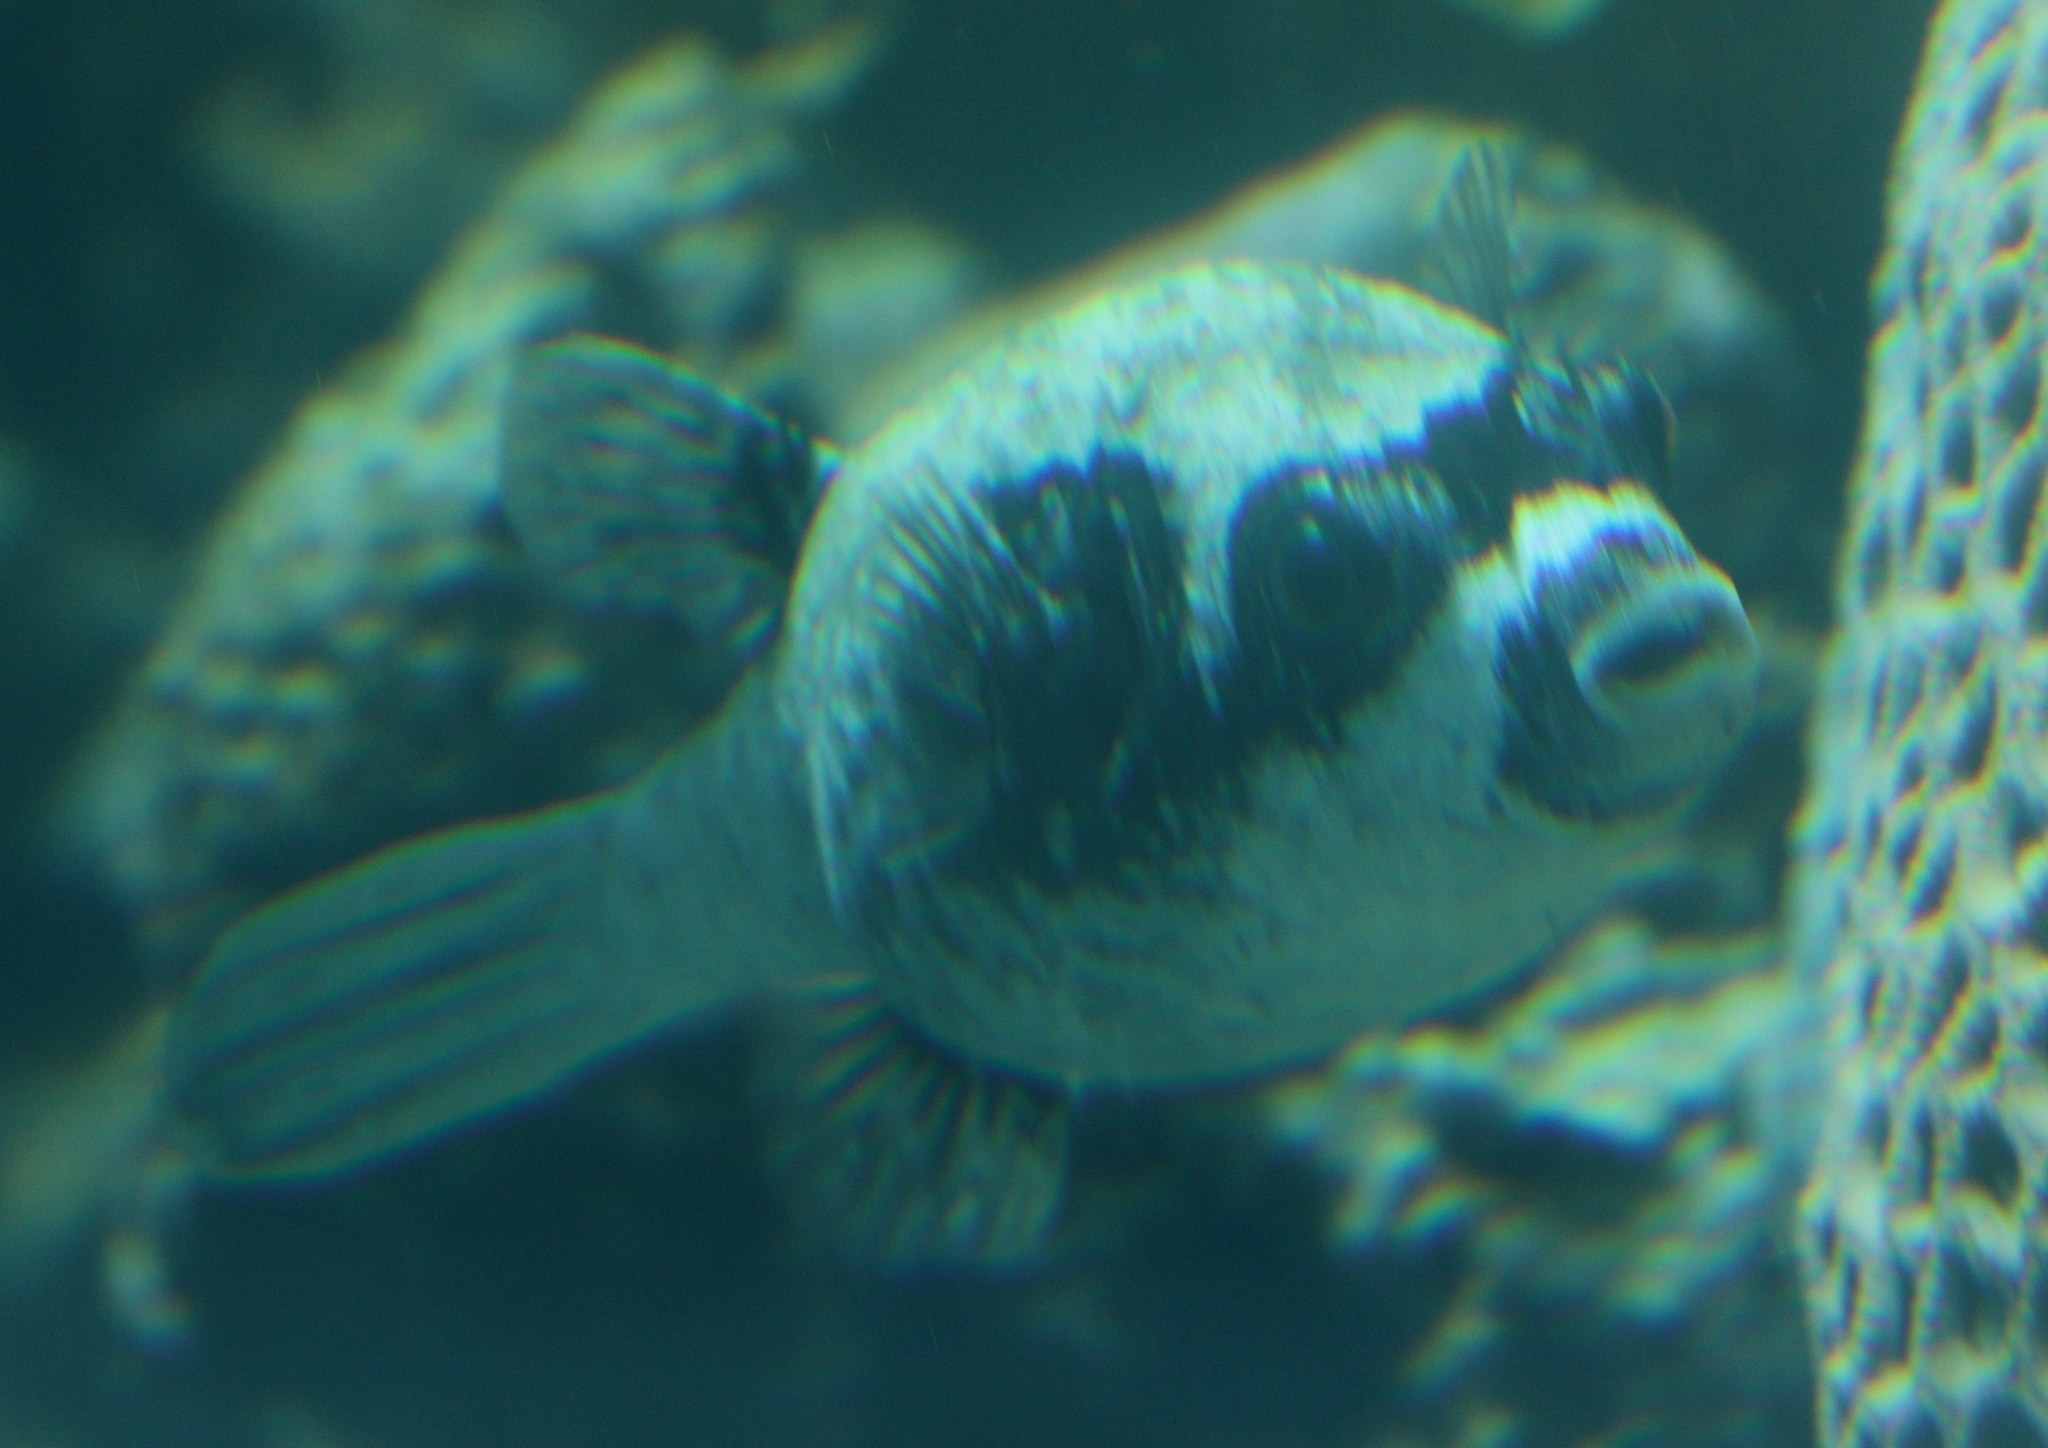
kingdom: Animalia
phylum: Chordata
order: Tetraodontiformes
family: Tetraodontidae
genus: Arothron
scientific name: Arothron diadematus
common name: Masked puffer
